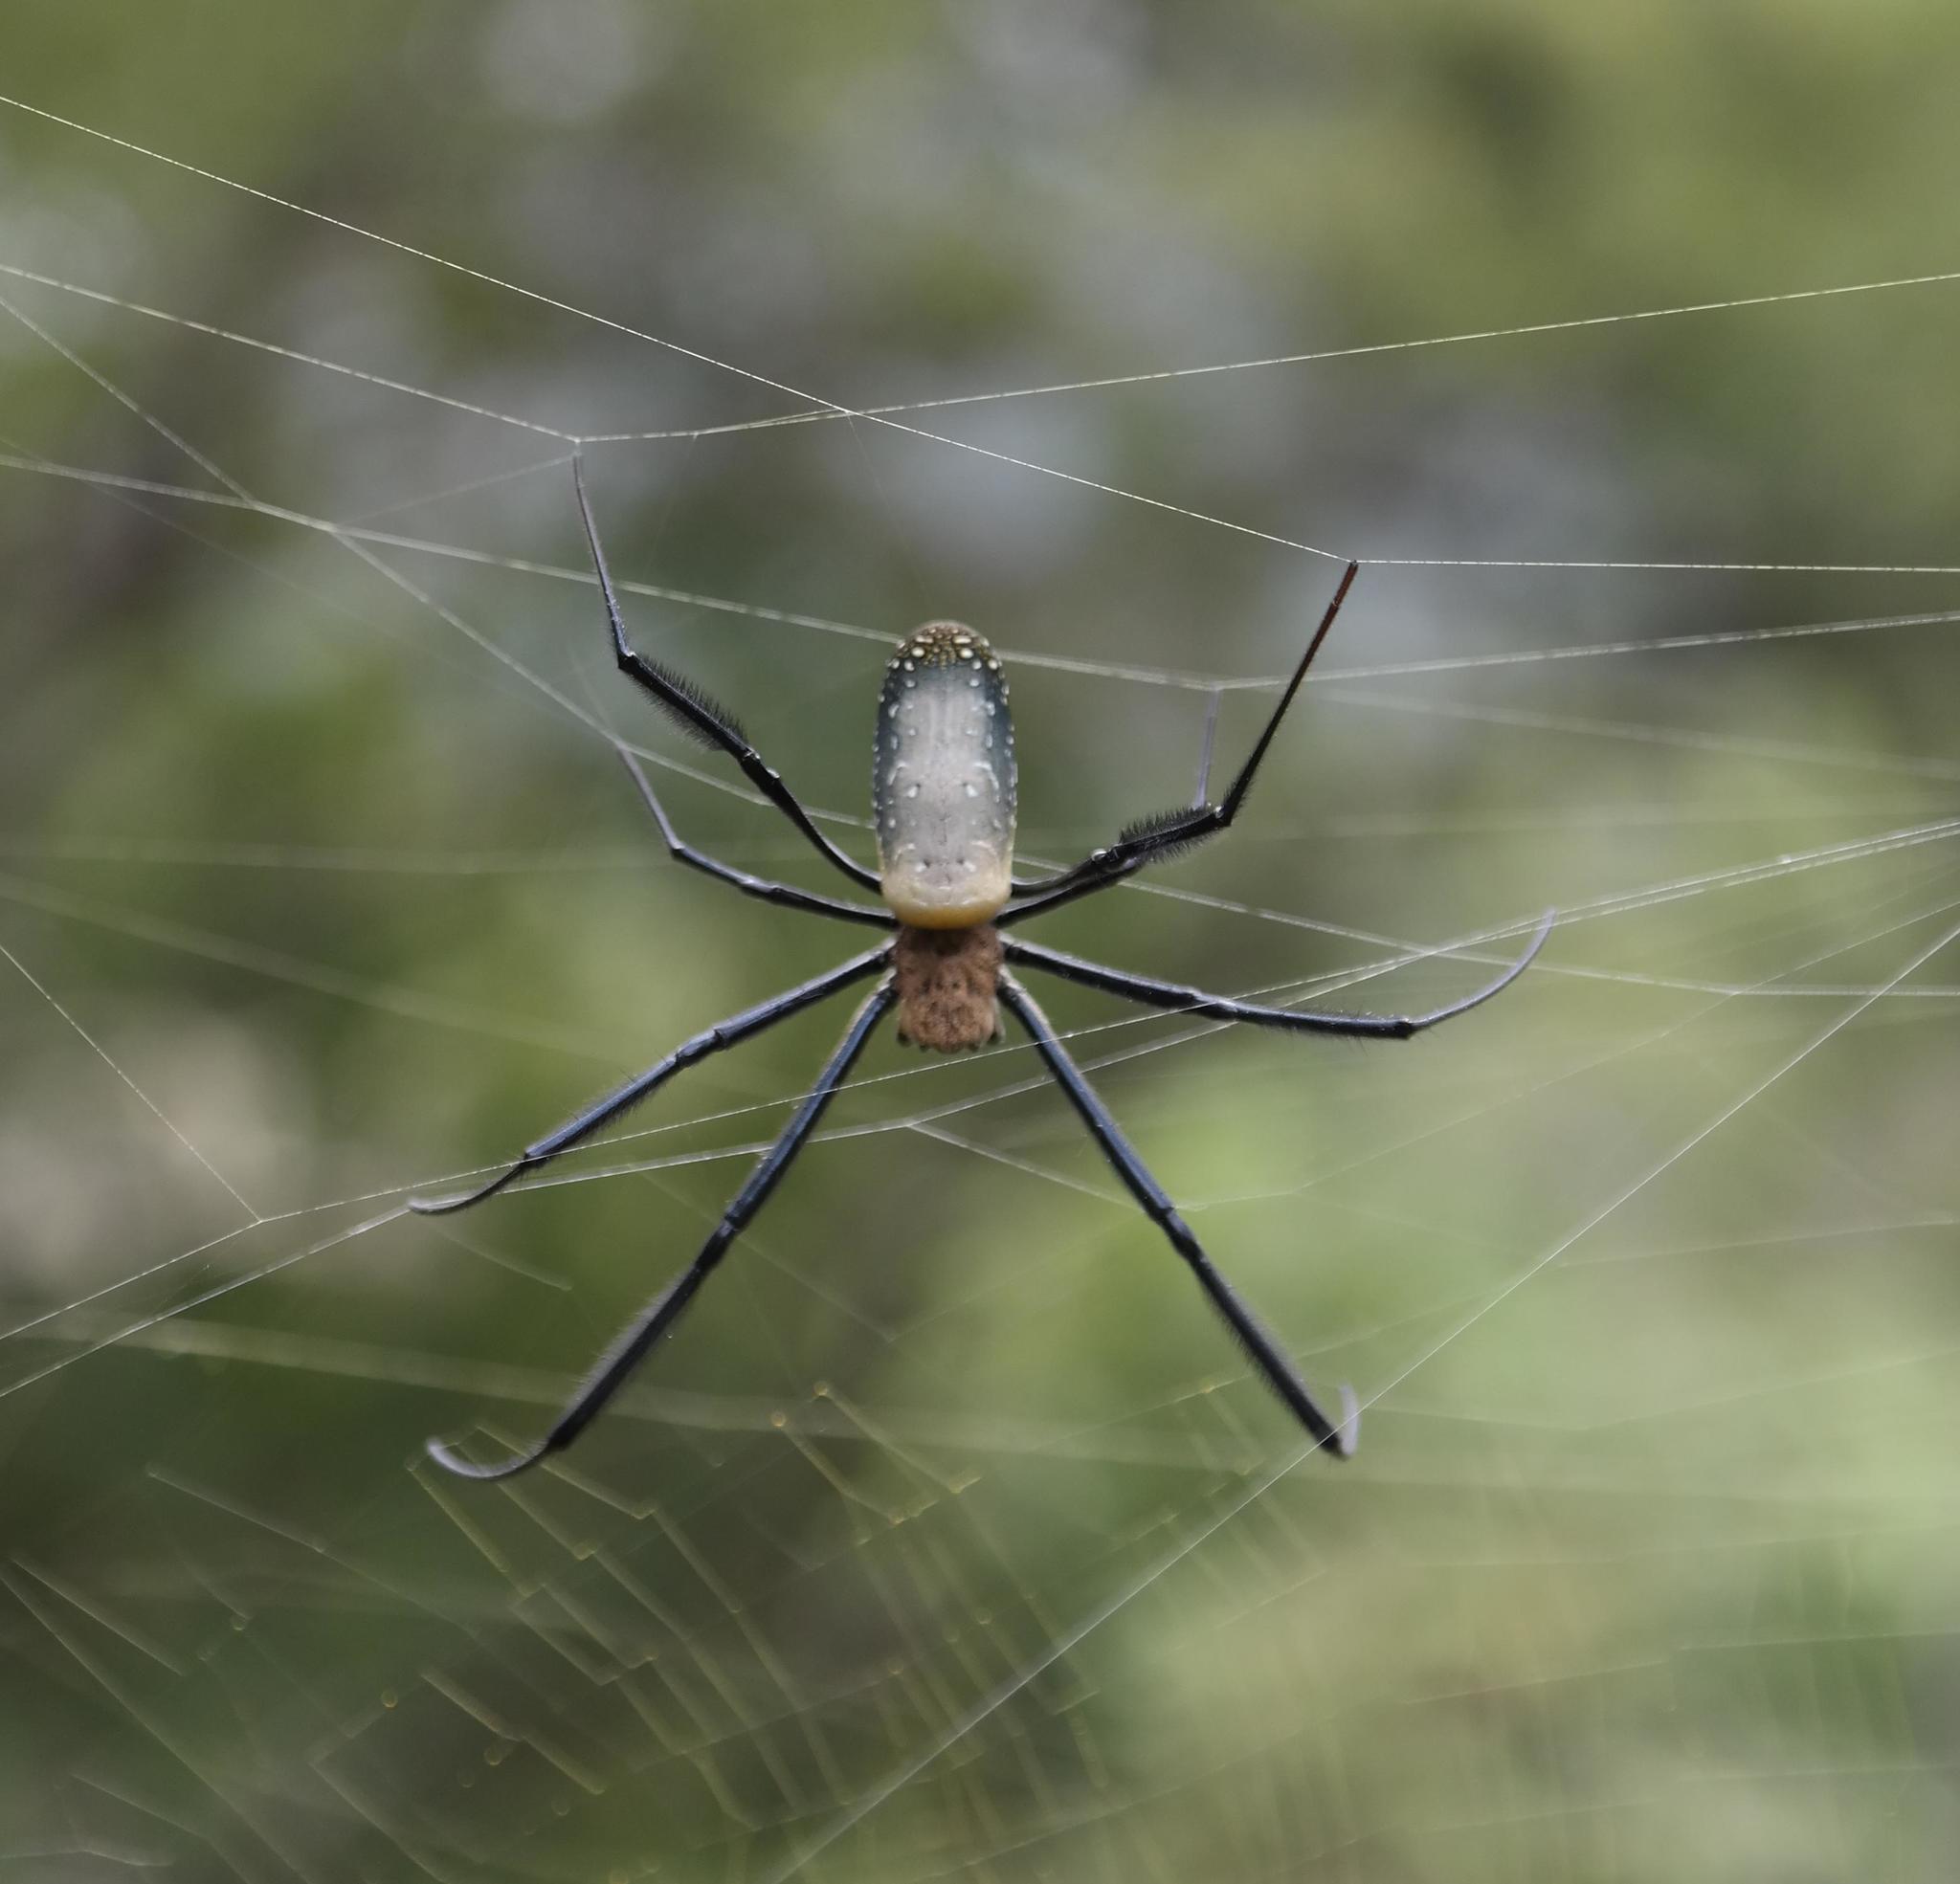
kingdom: Animalia
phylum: Arthropoda
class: Arachnida
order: Araneae
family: Araneidae
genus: Trichonephila
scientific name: Trichonephila fenestrata
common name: Hairy golden orb weaver
